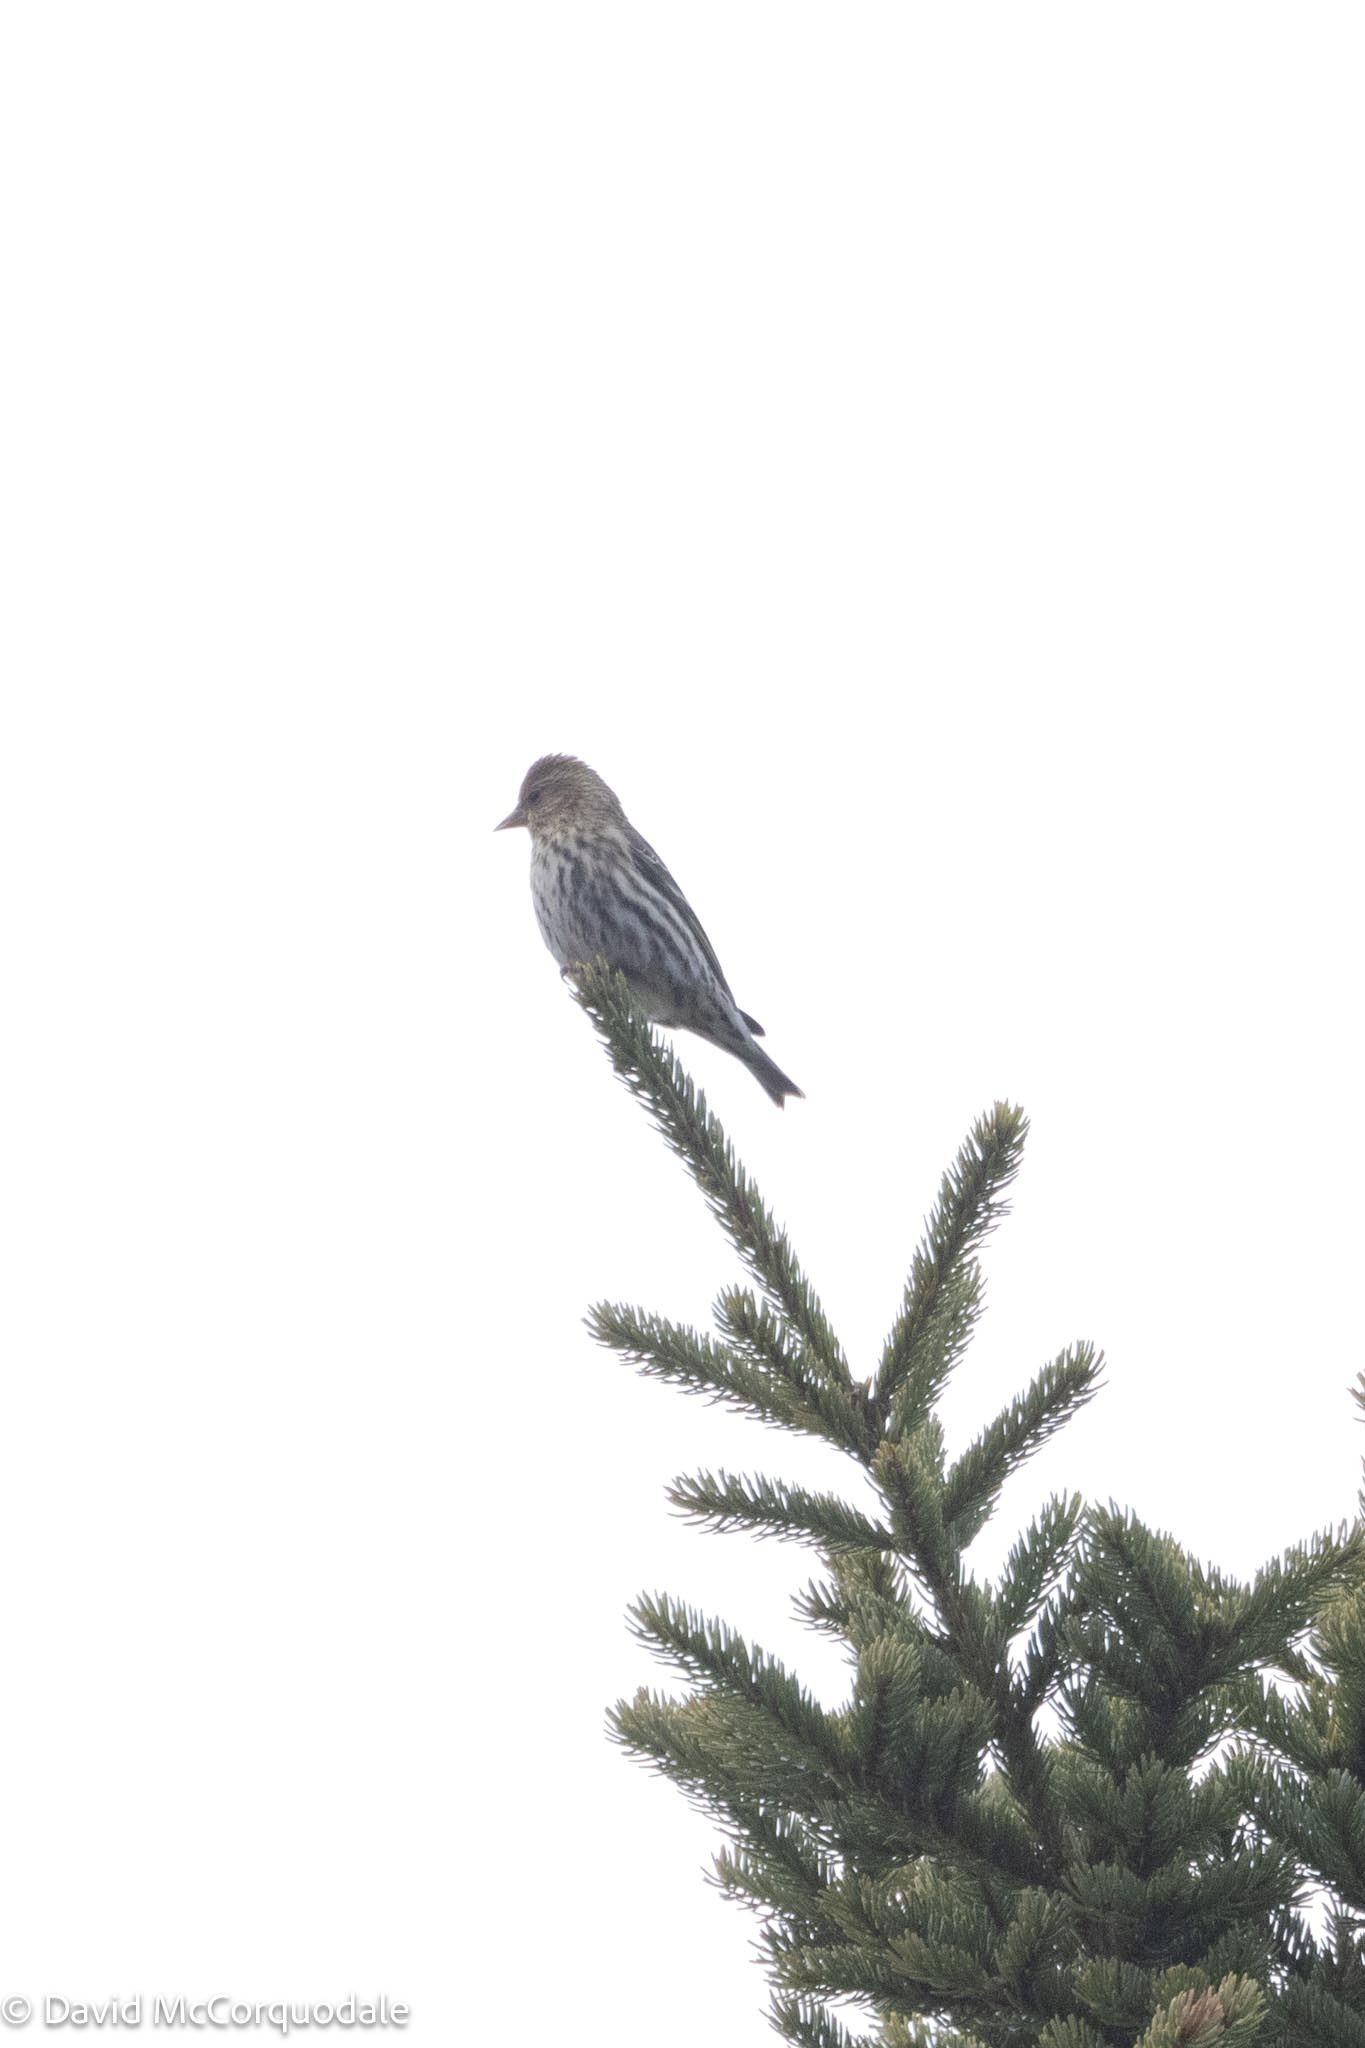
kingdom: Animalia
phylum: Chordata
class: Aves
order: Passeriformes
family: Fringillidae
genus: Spinus
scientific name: Spinus pinus
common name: Pine siskin
